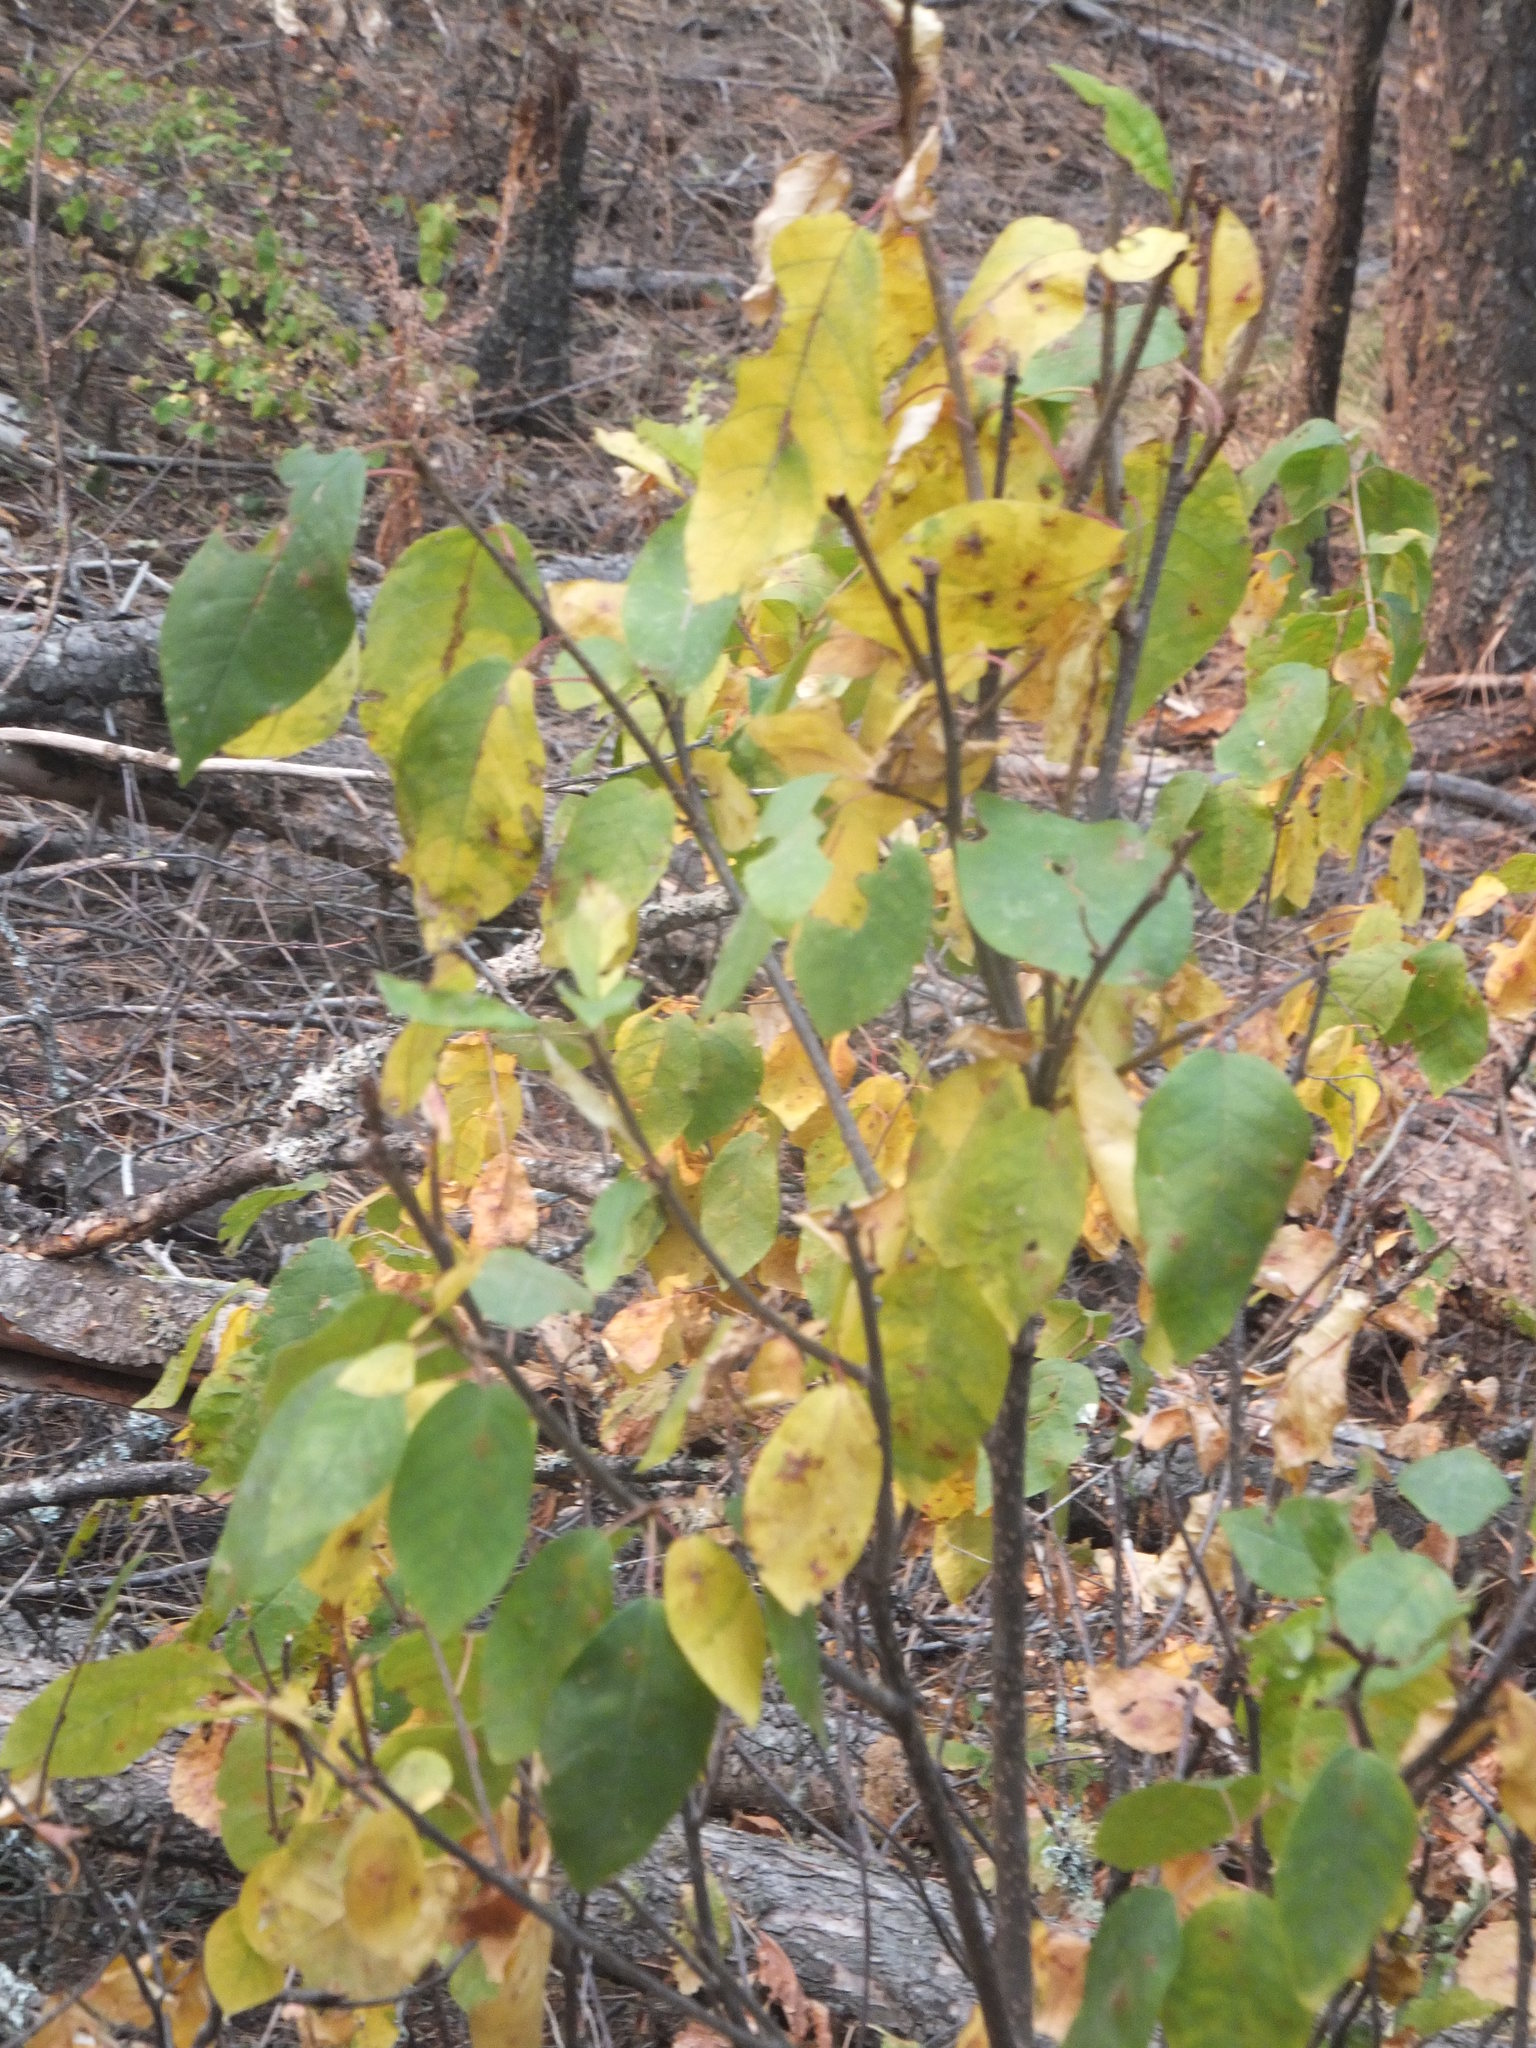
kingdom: Plantae
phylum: Tracheophyta
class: Magnoliopsida
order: Rosales
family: Rosaceae
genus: Prunus
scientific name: Prunus virginiana
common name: Chokecherry
